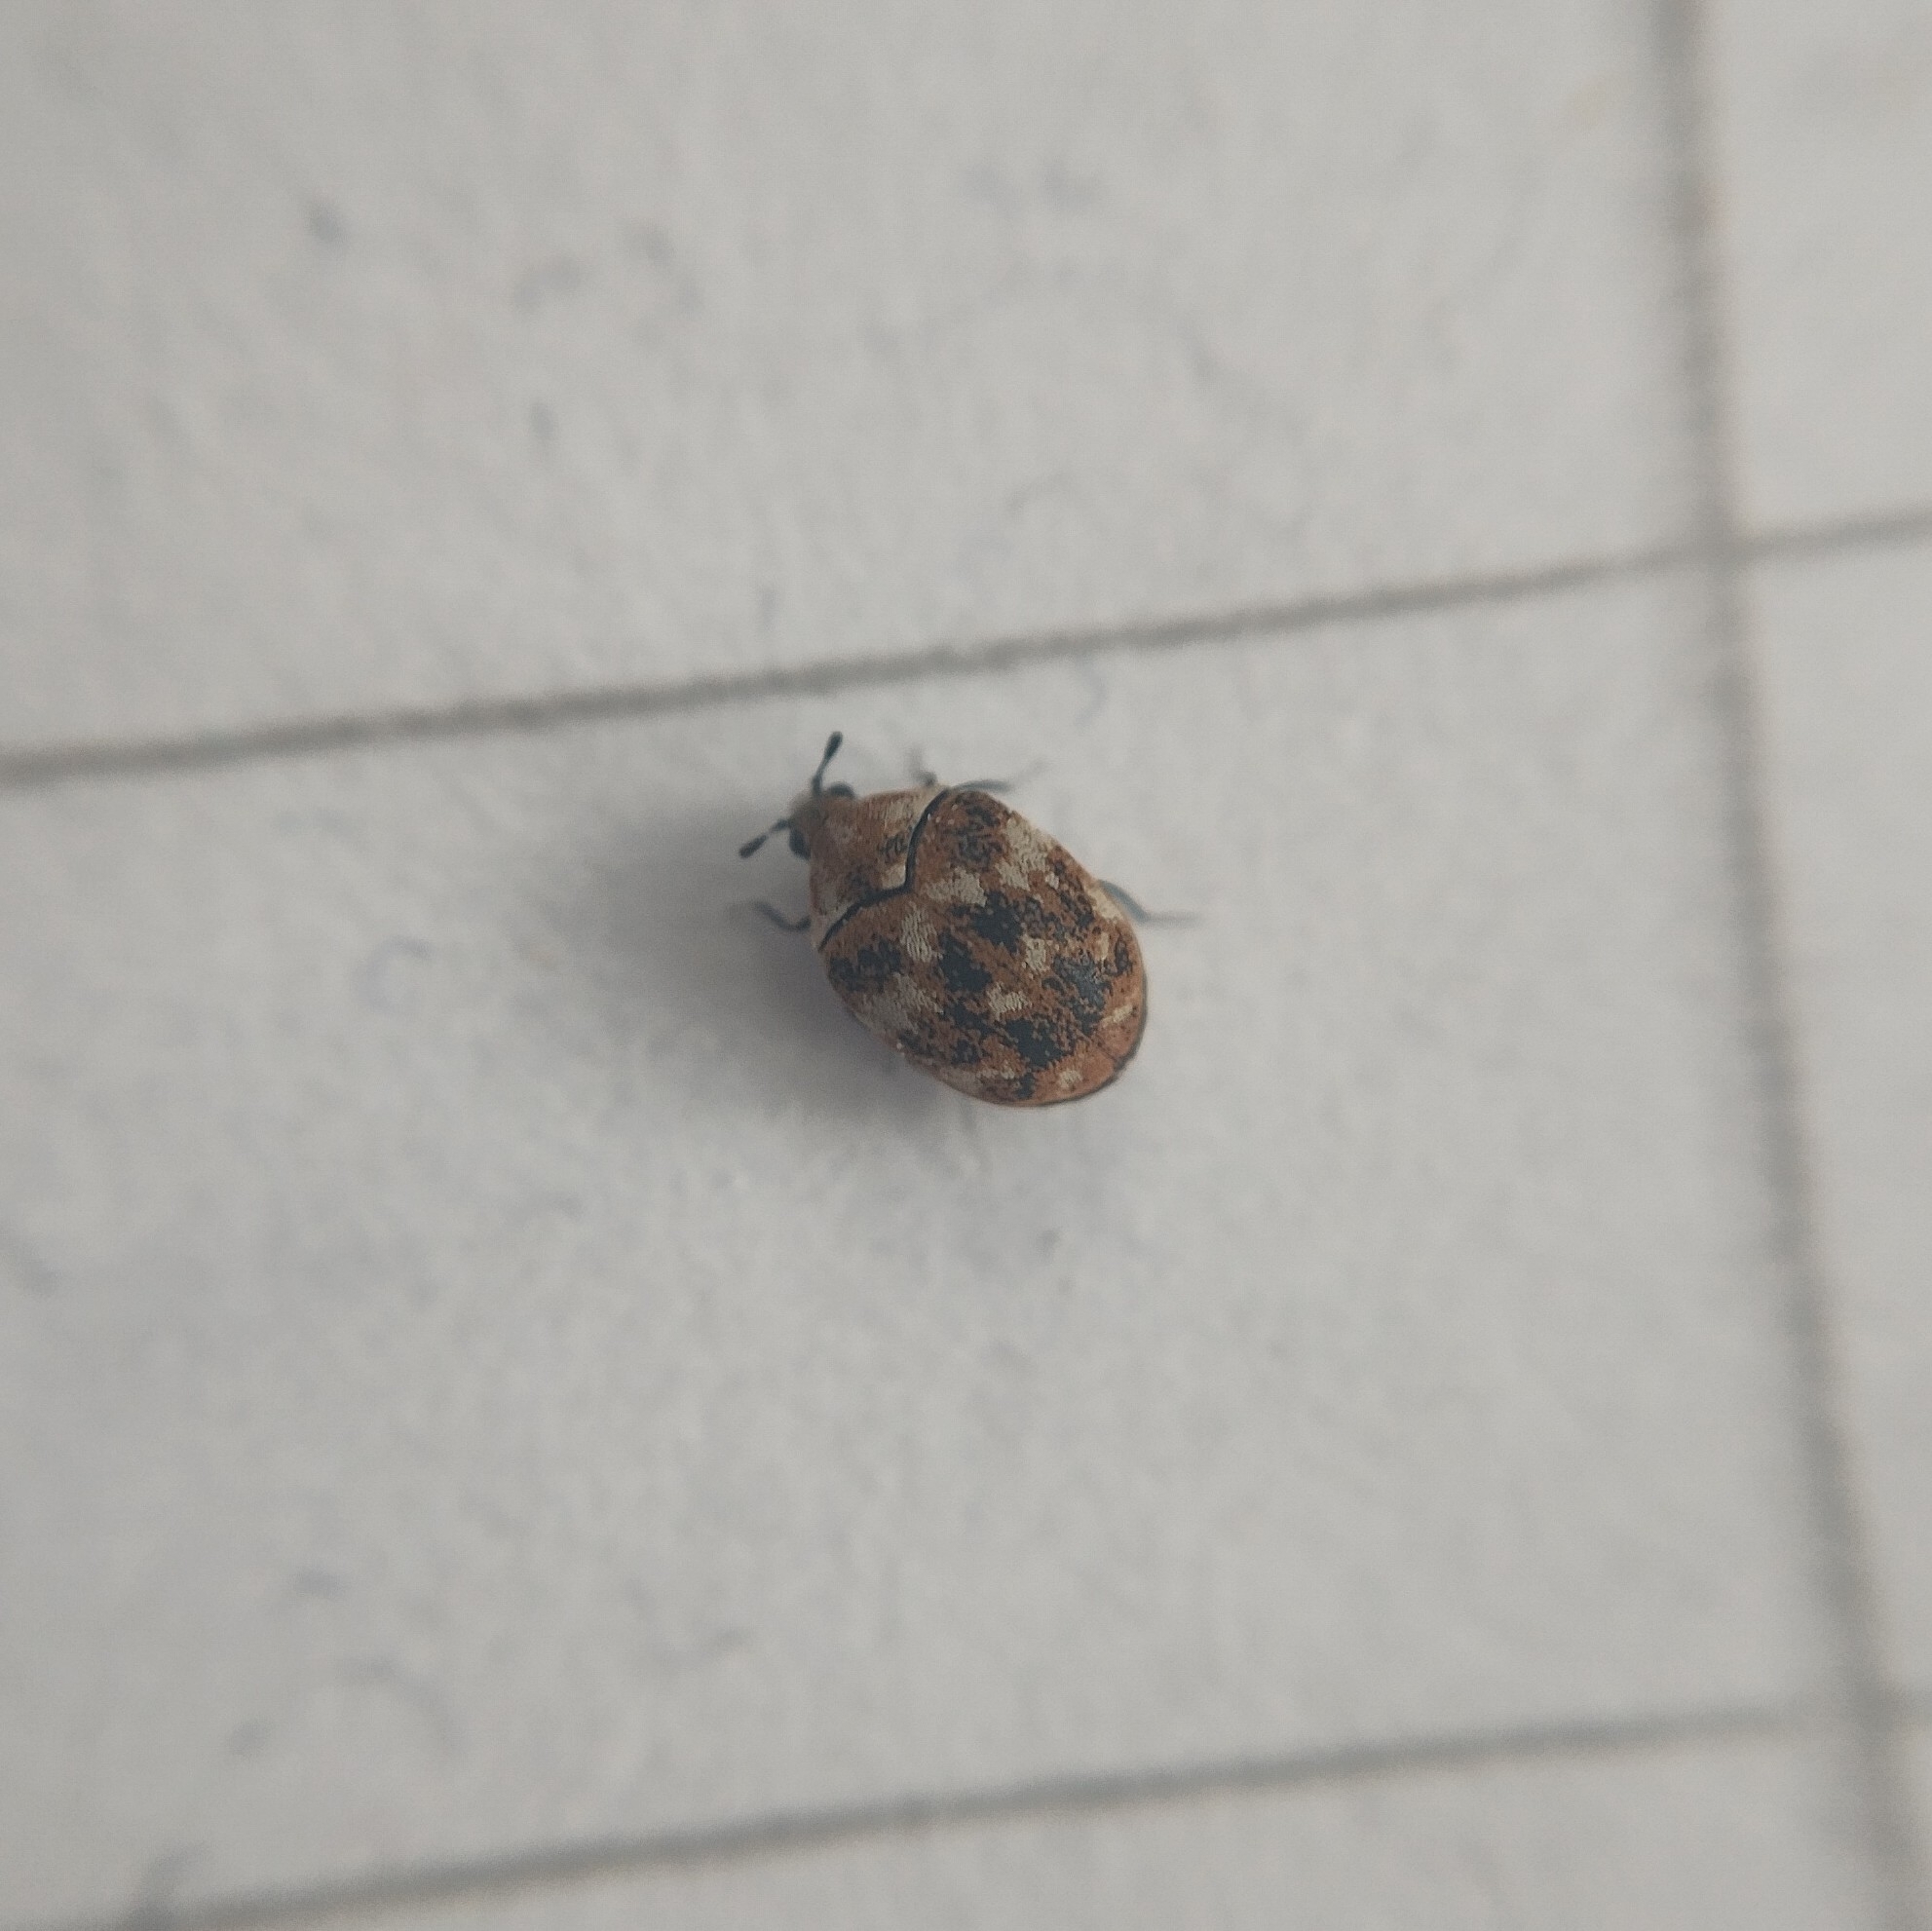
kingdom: Animalia
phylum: Arthropoda
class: Insecta
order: Coleoptera
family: Dermestidae
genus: Anthrenus
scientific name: Anthrenus verbasci
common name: Varied carpet beetle
